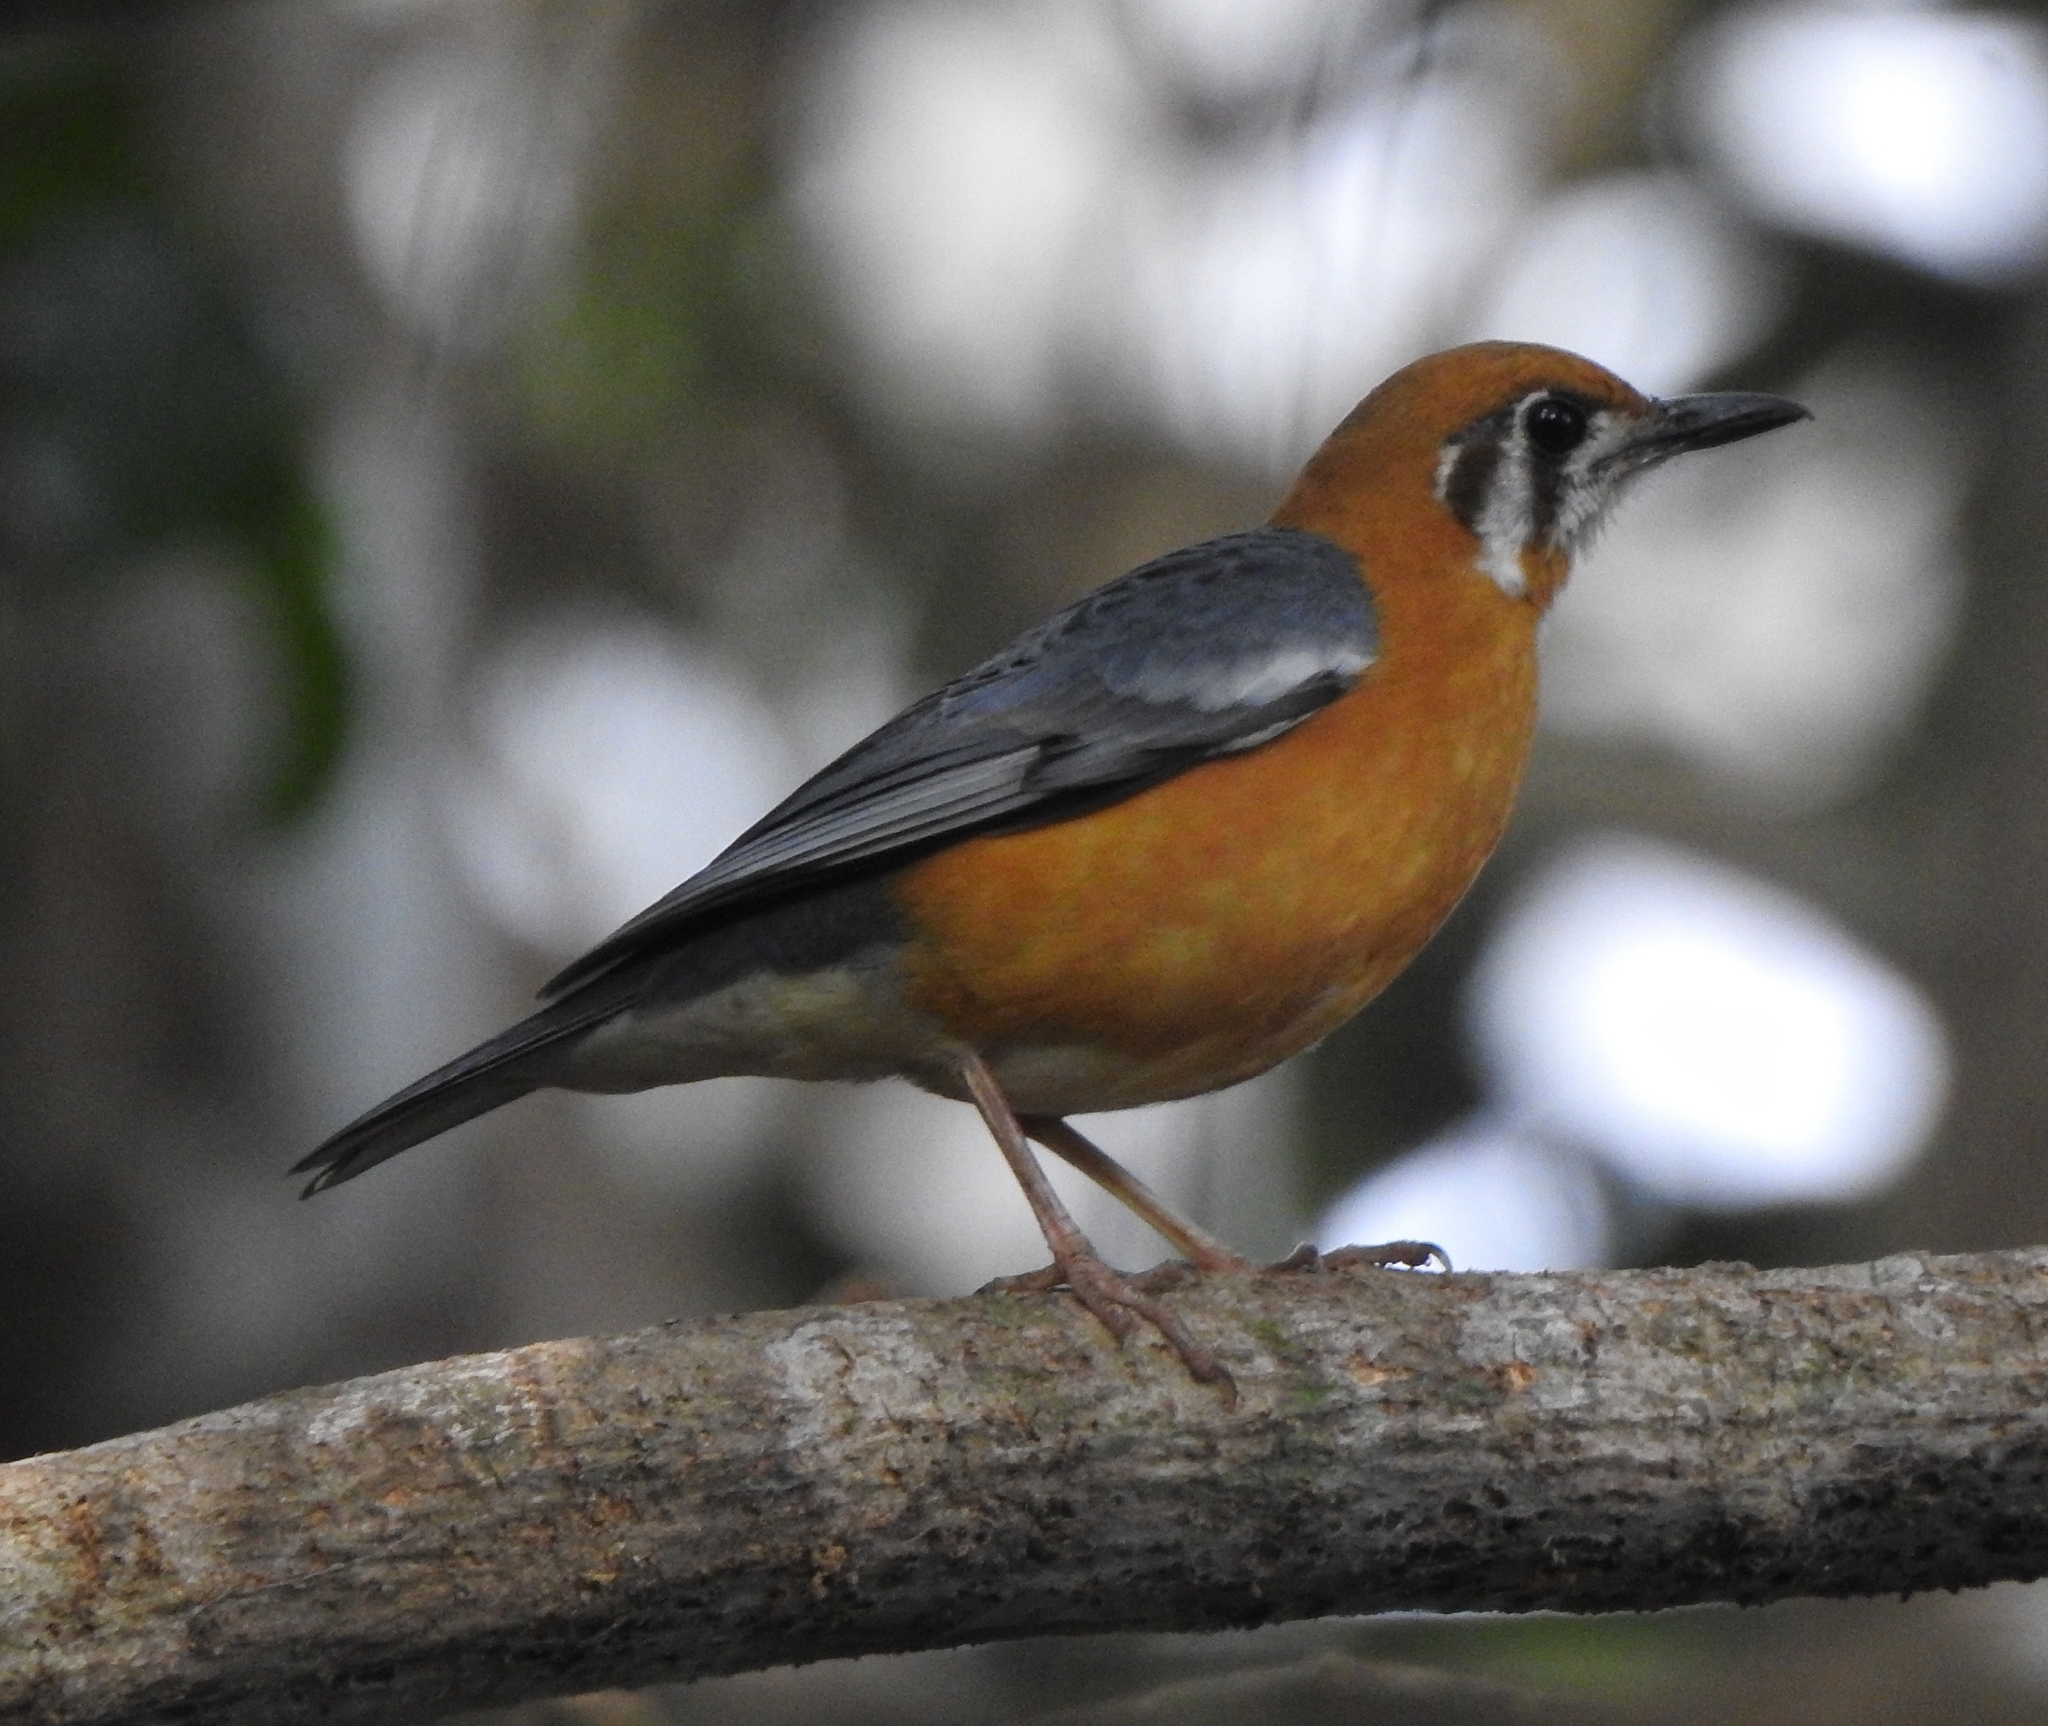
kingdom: Animalia
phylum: Chordata
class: Aves
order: Passeriformes
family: Turdidae
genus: Geokichla
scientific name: Geokichla citrina
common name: Orange-headed thrush
